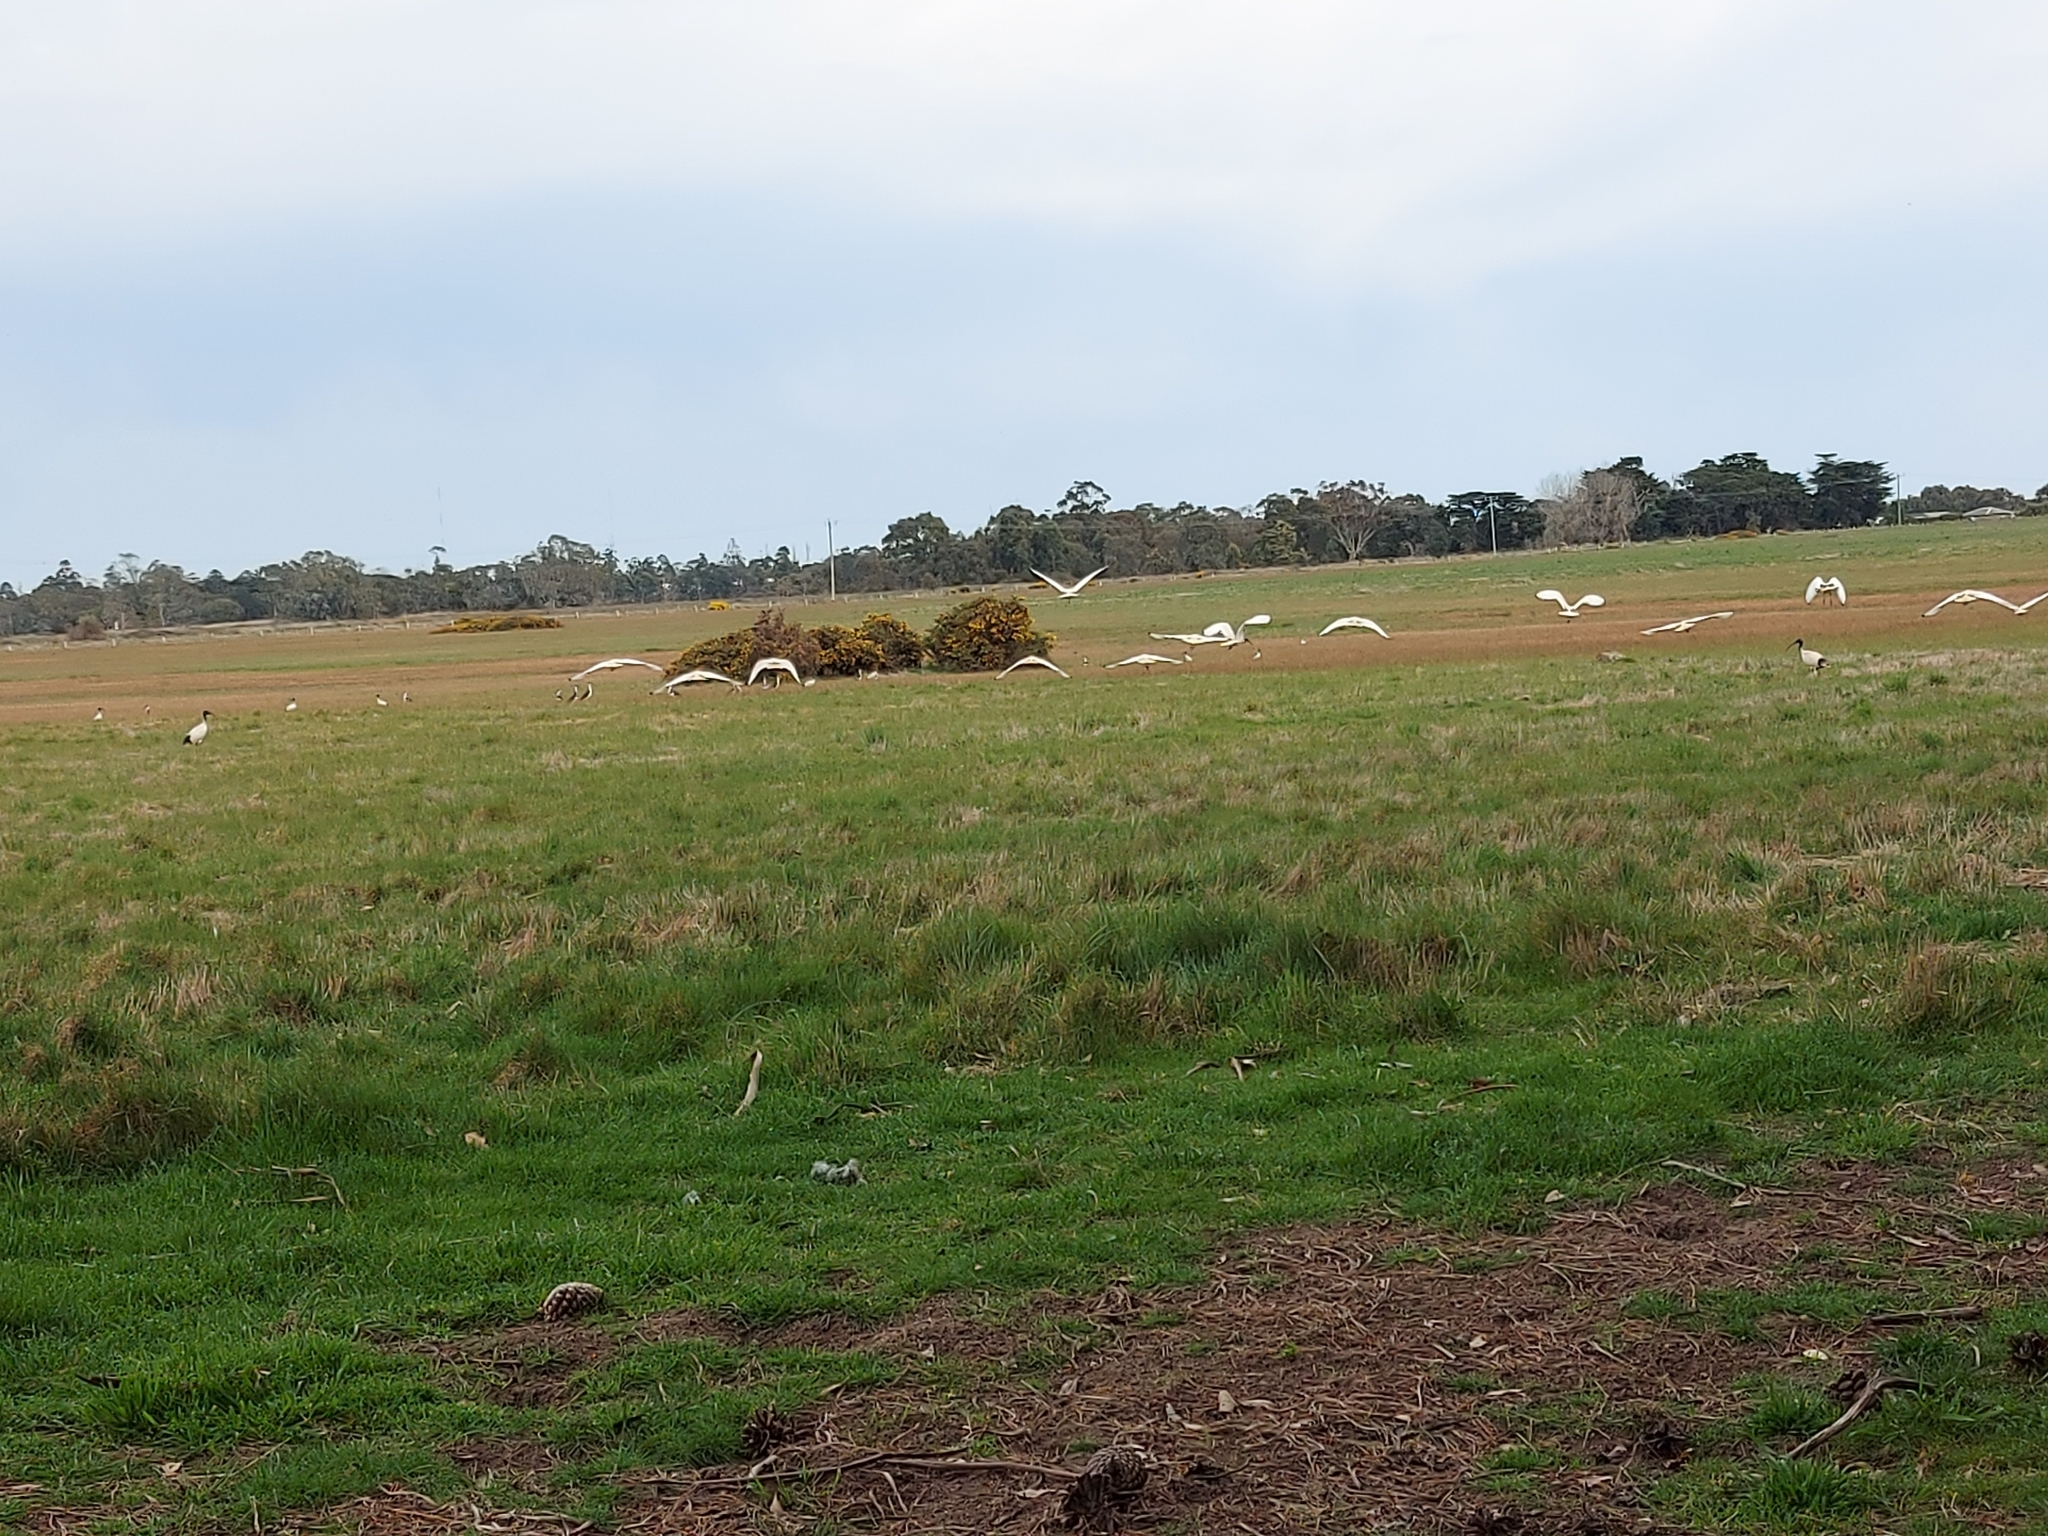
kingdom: Animalia
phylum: Chordata
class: Aves
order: Pelecaniformes
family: Threskiornithidae
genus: Threskiornis
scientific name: Threskiornis molucca
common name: Australian white ibis
